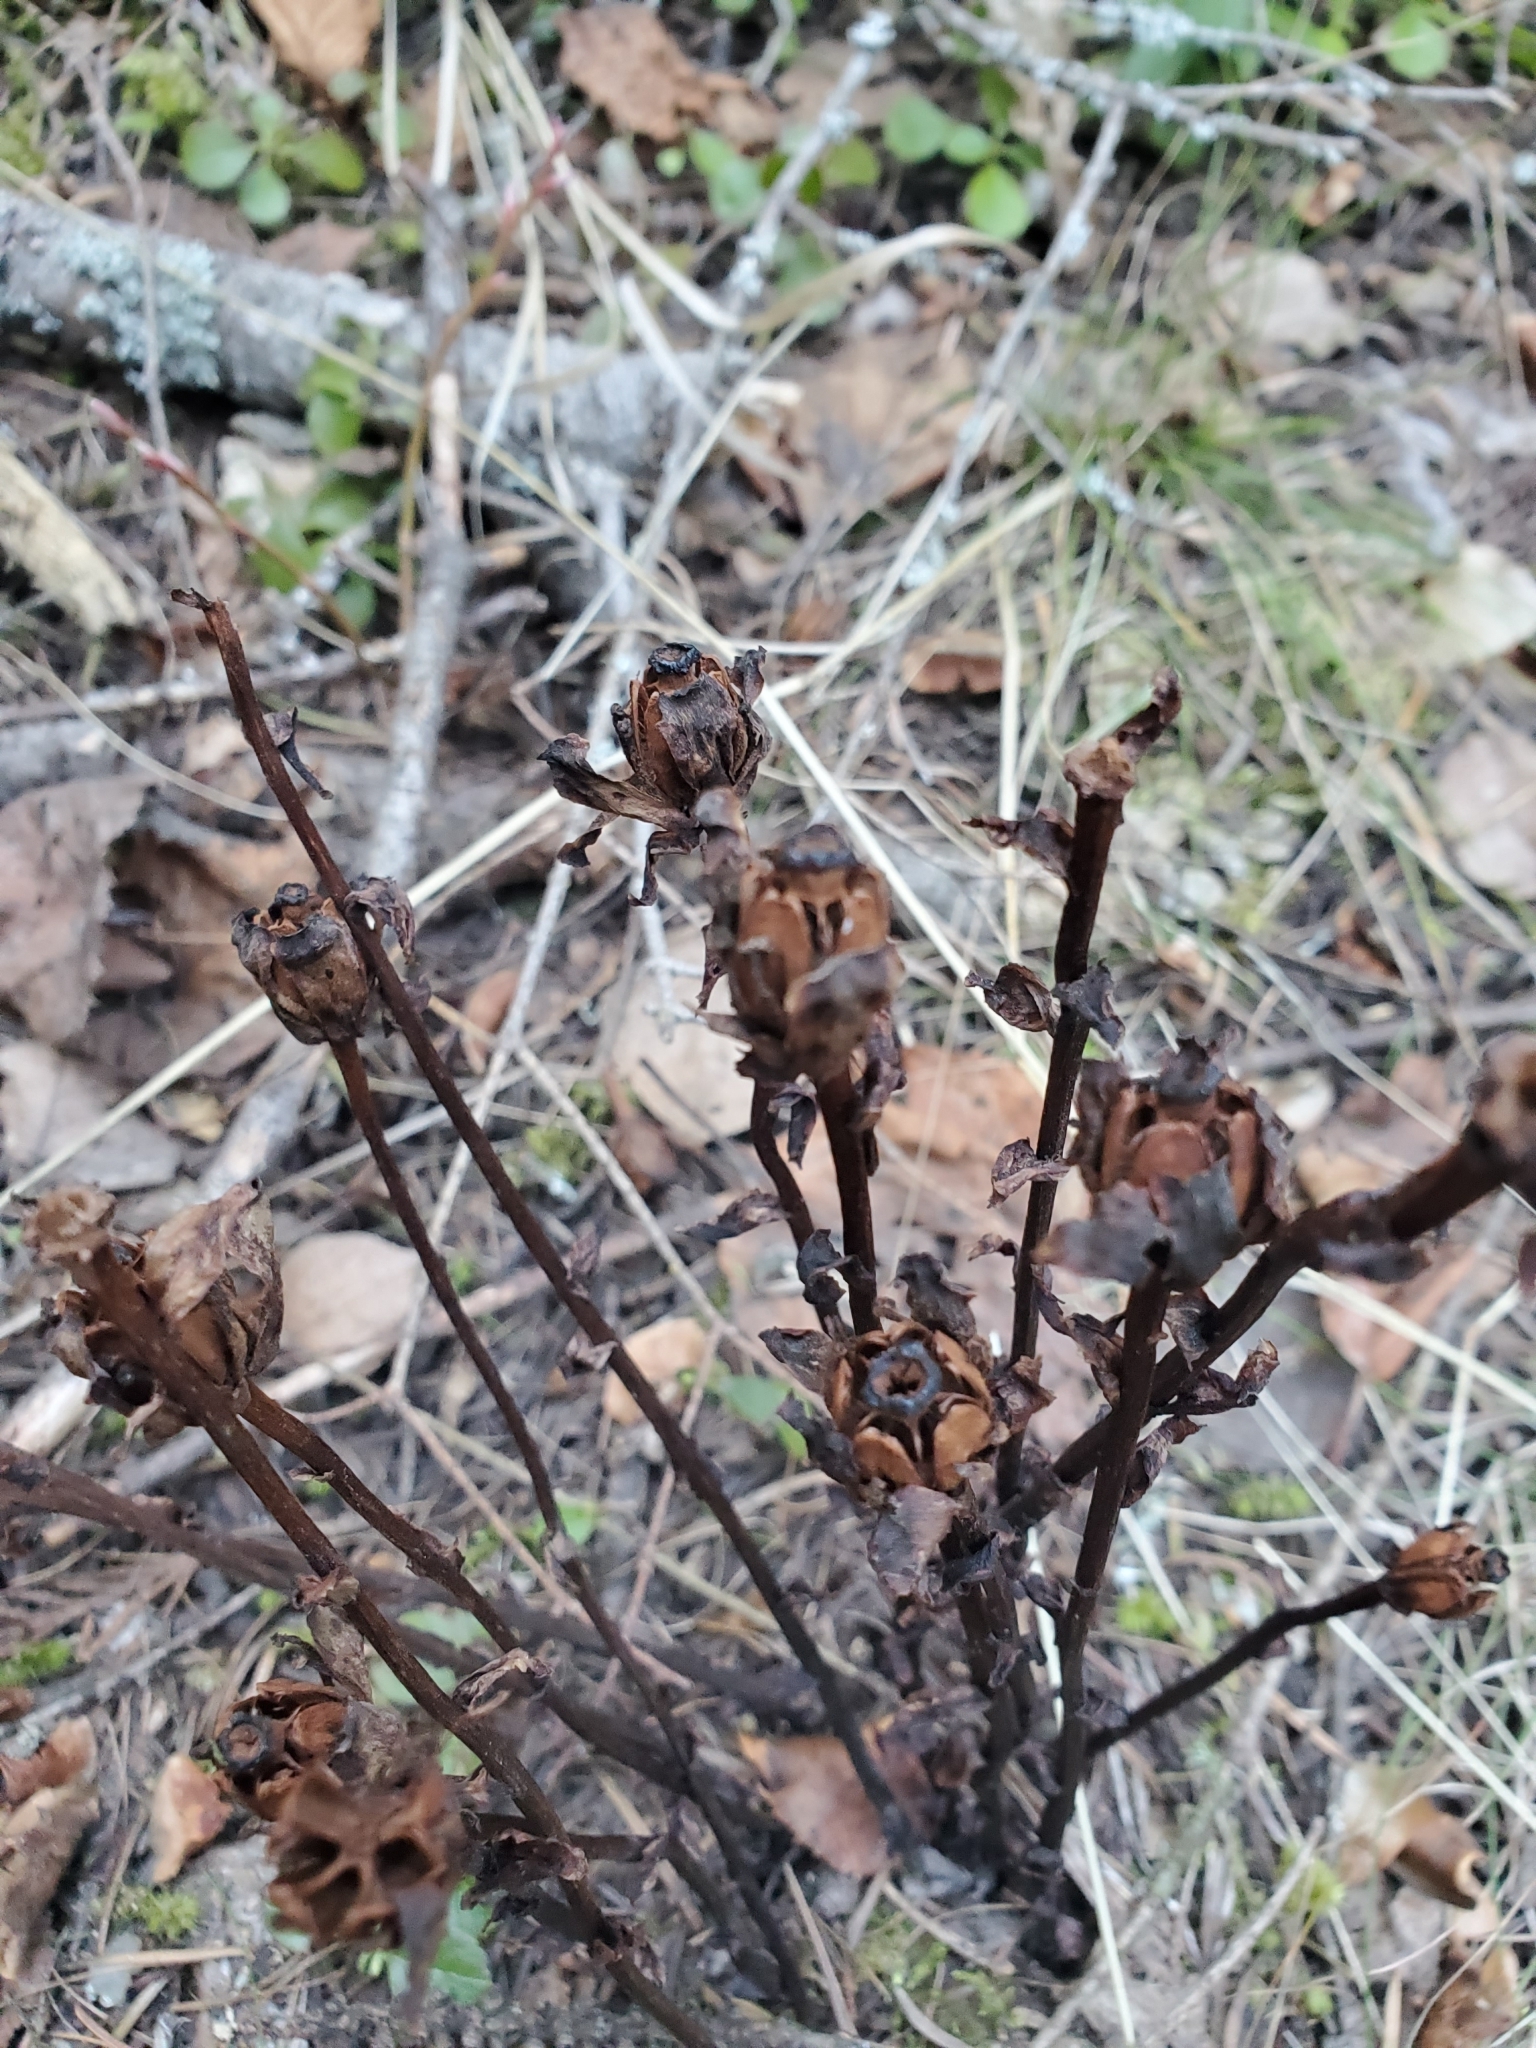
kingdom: Plantae
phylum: Tracheophyta
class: Magnoliopsida
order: Ericales
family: Ericaceae
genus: Monotropa
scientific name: Monotropa uniflora
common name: Convulsion root
